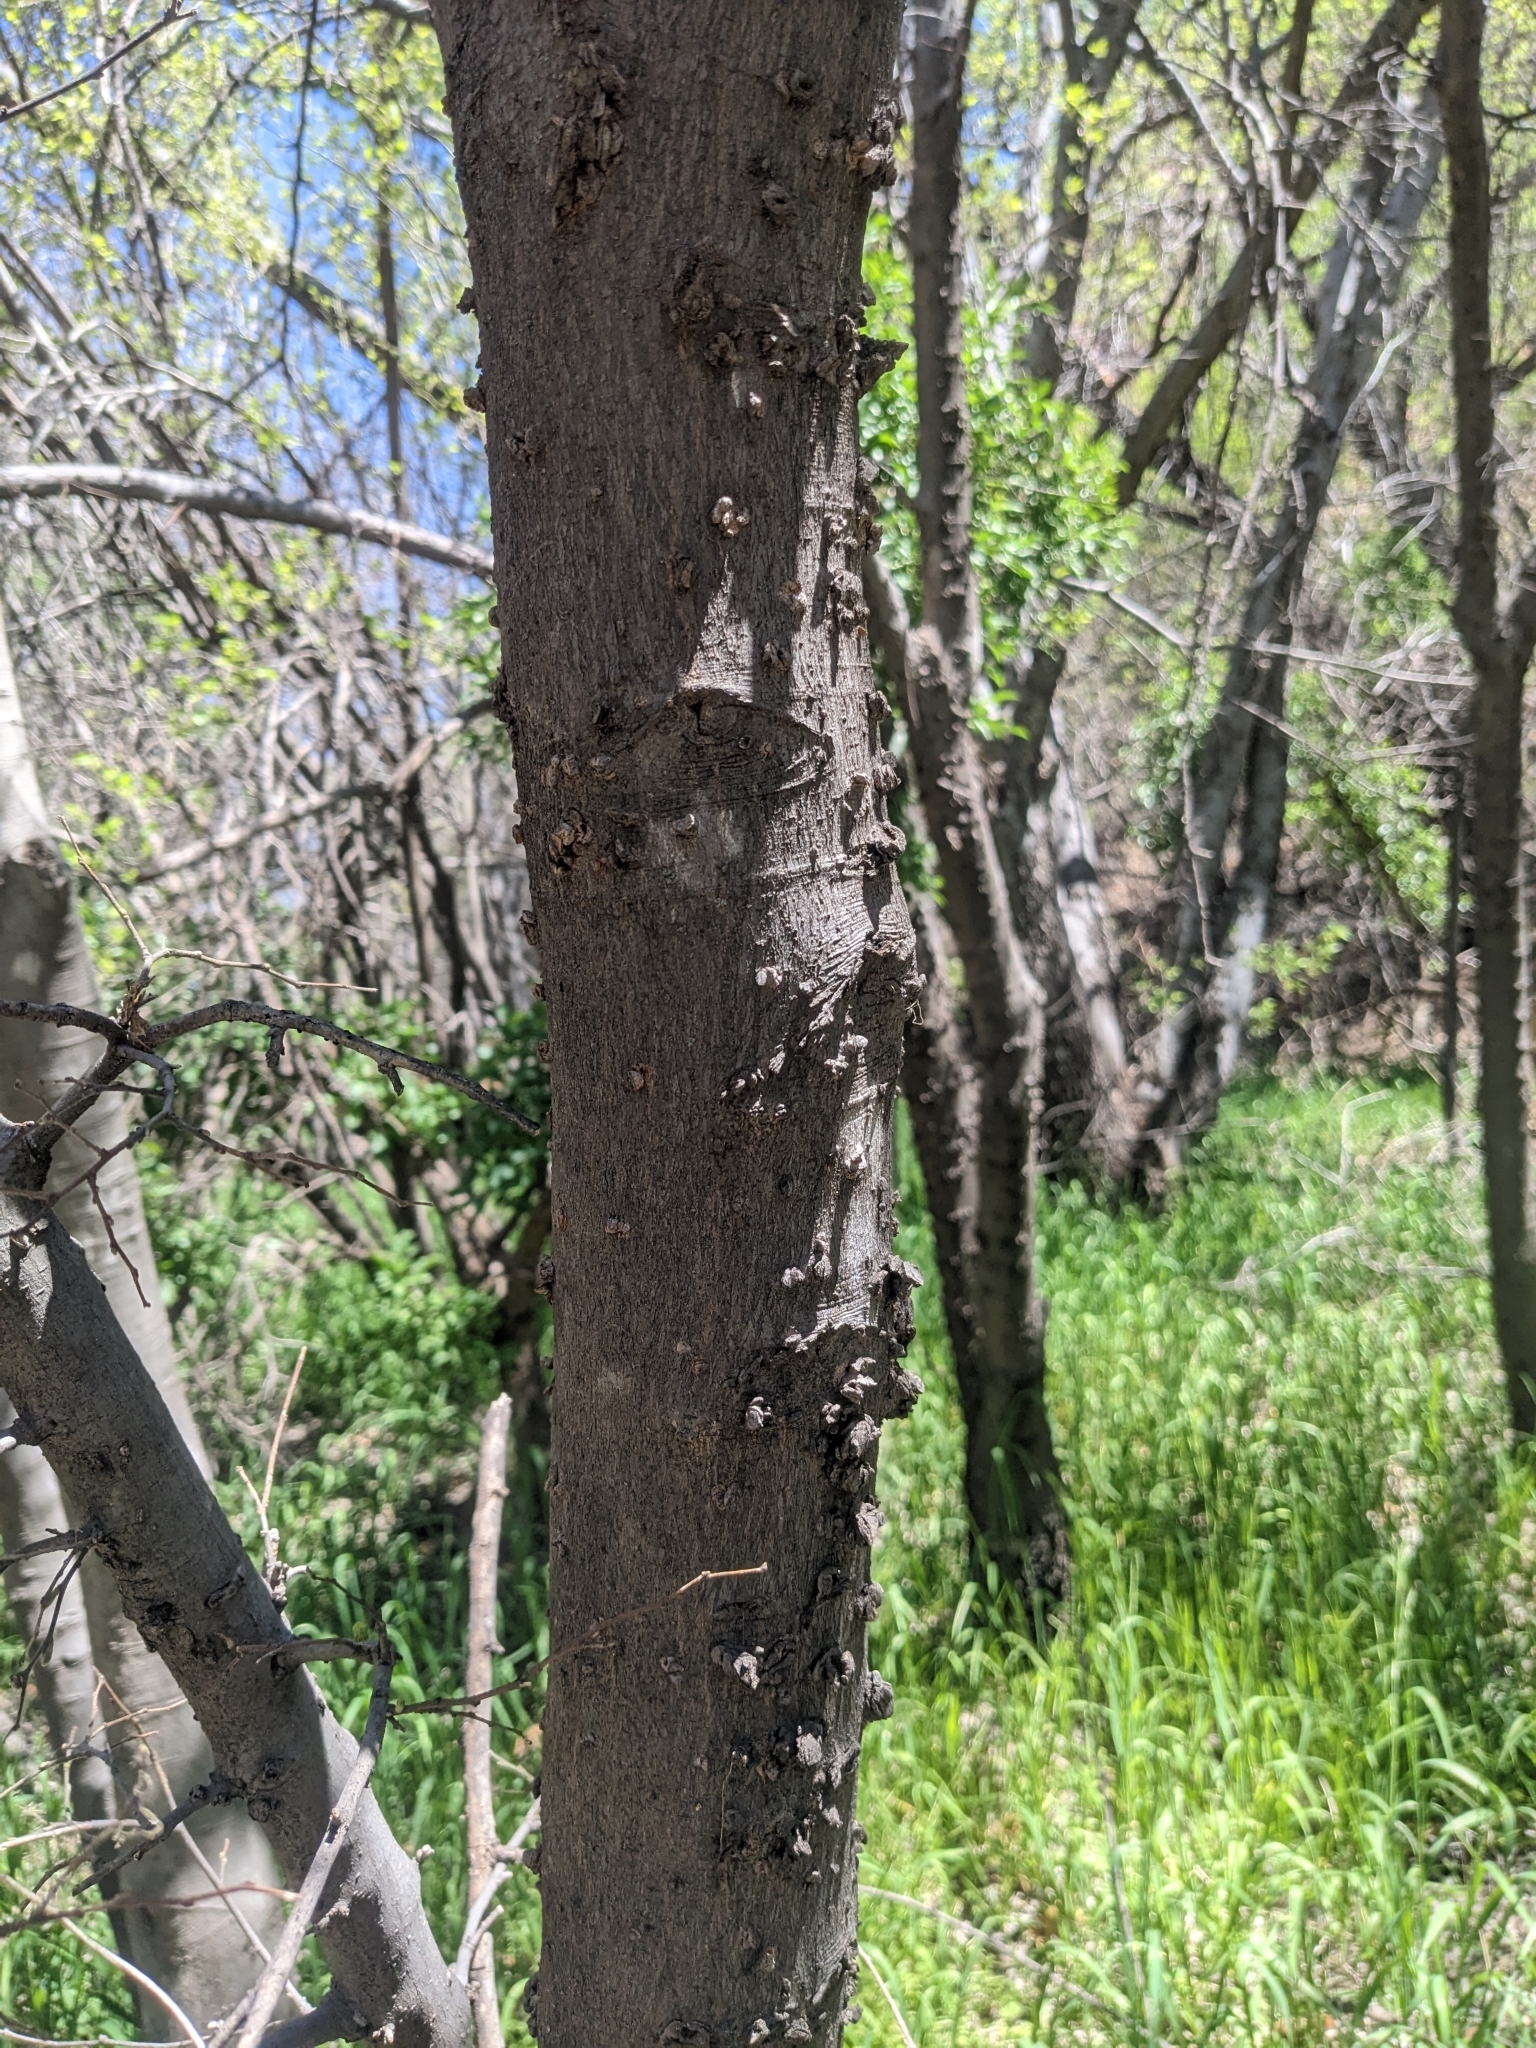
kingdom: Plantae
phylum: Tracheophyta
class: Magnoliopsida
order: Rosales
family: Cannabaceae
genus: Celtis
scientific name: Celtis reticulata
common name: Netleaf hackberry
